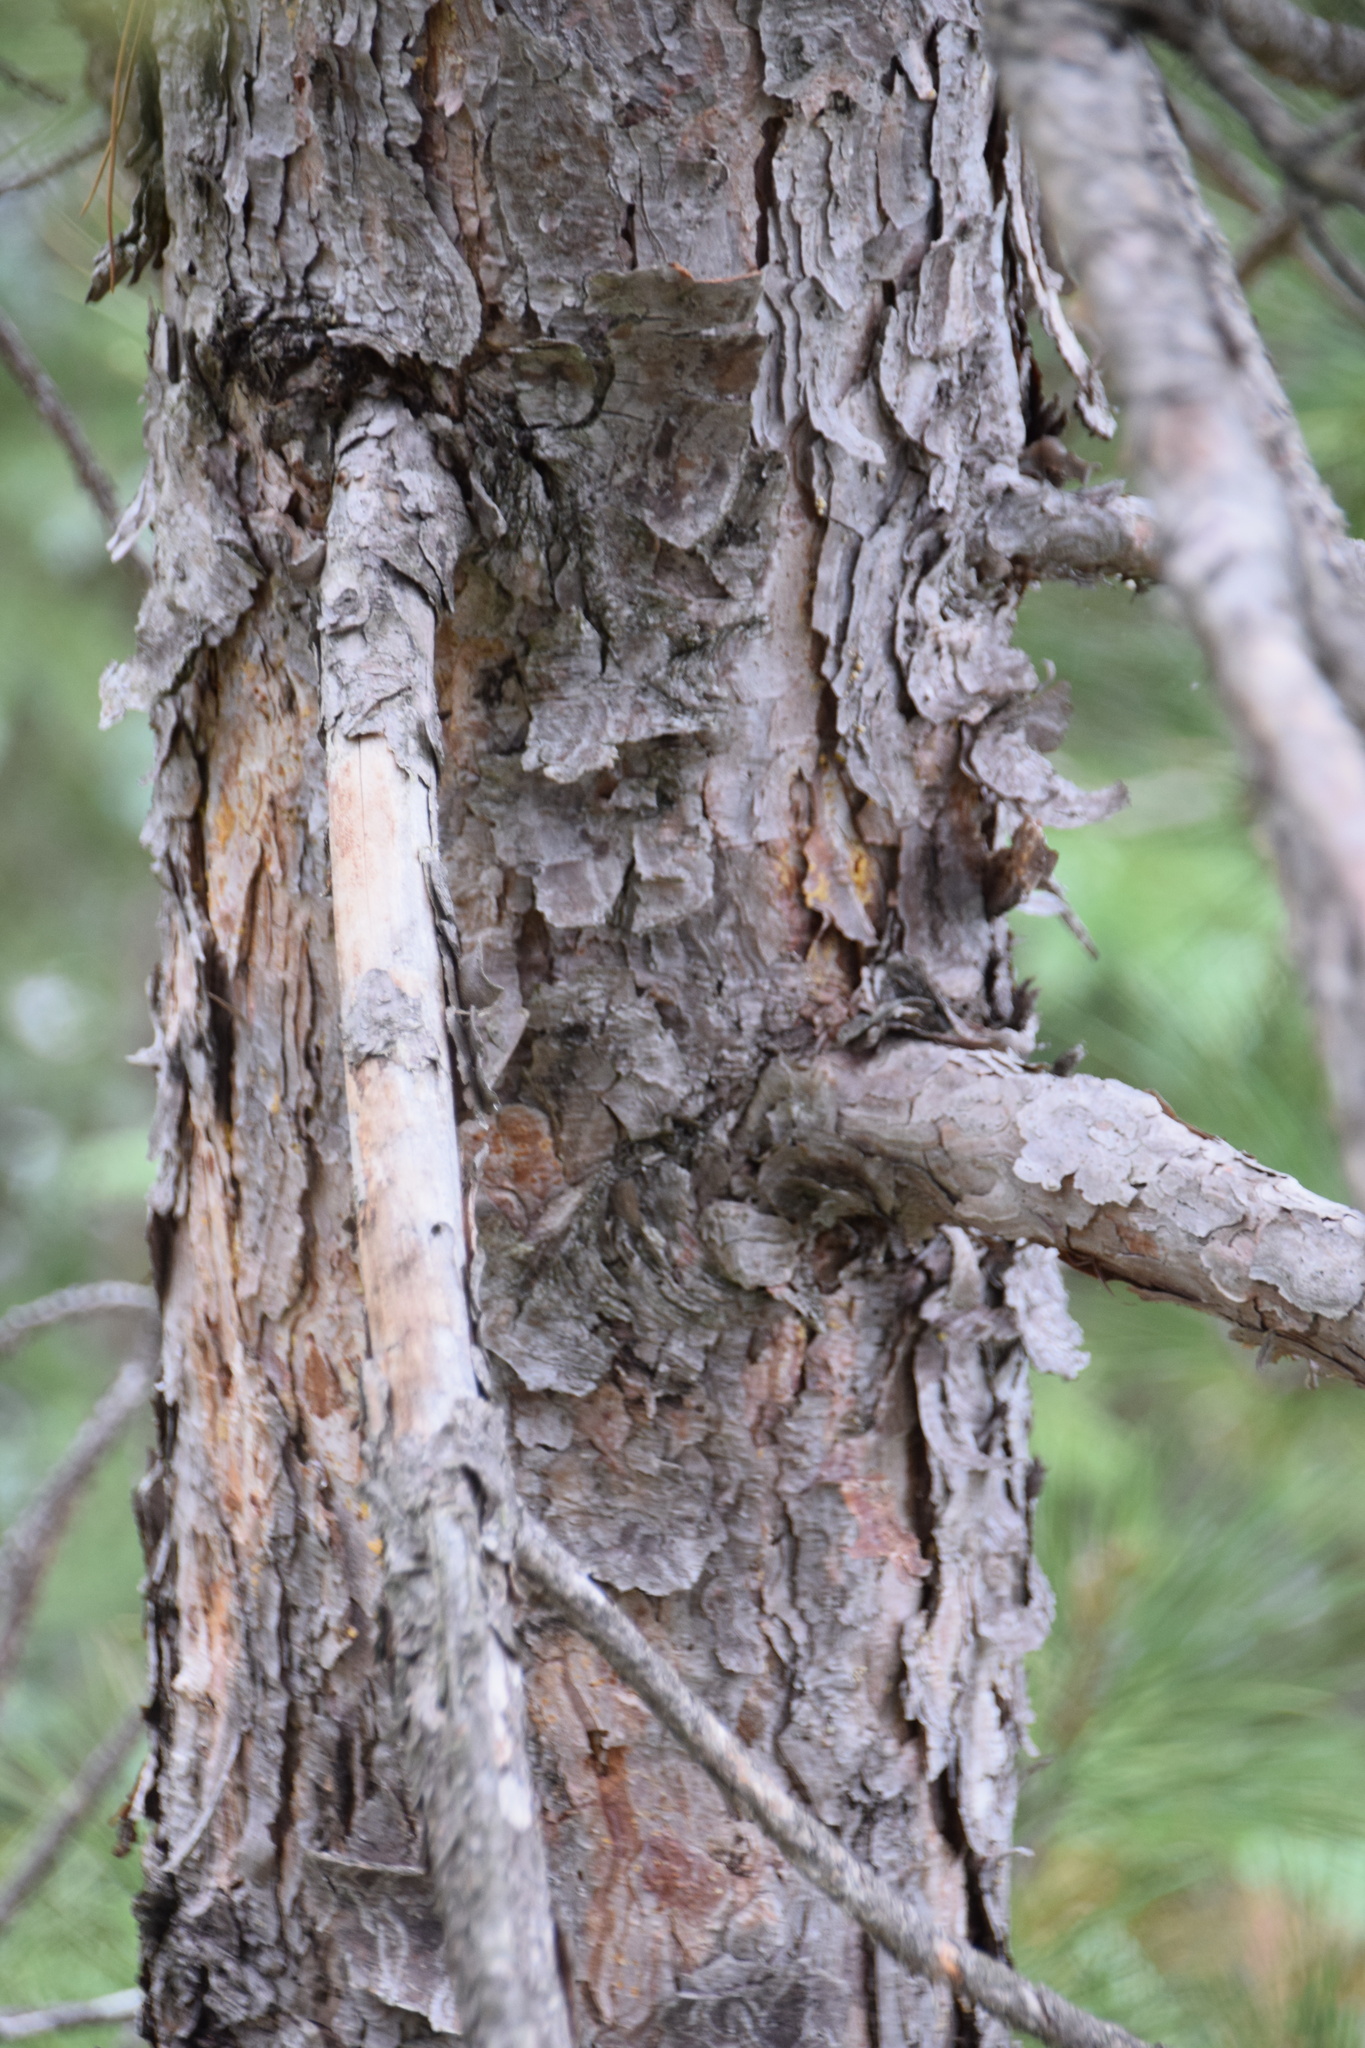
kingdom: Plantae
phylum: Tracheophyta
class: Pinopsida
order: Pinales
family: Pinaceae
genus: Pinus
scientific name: Pinus resinosa
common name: Norway pine
